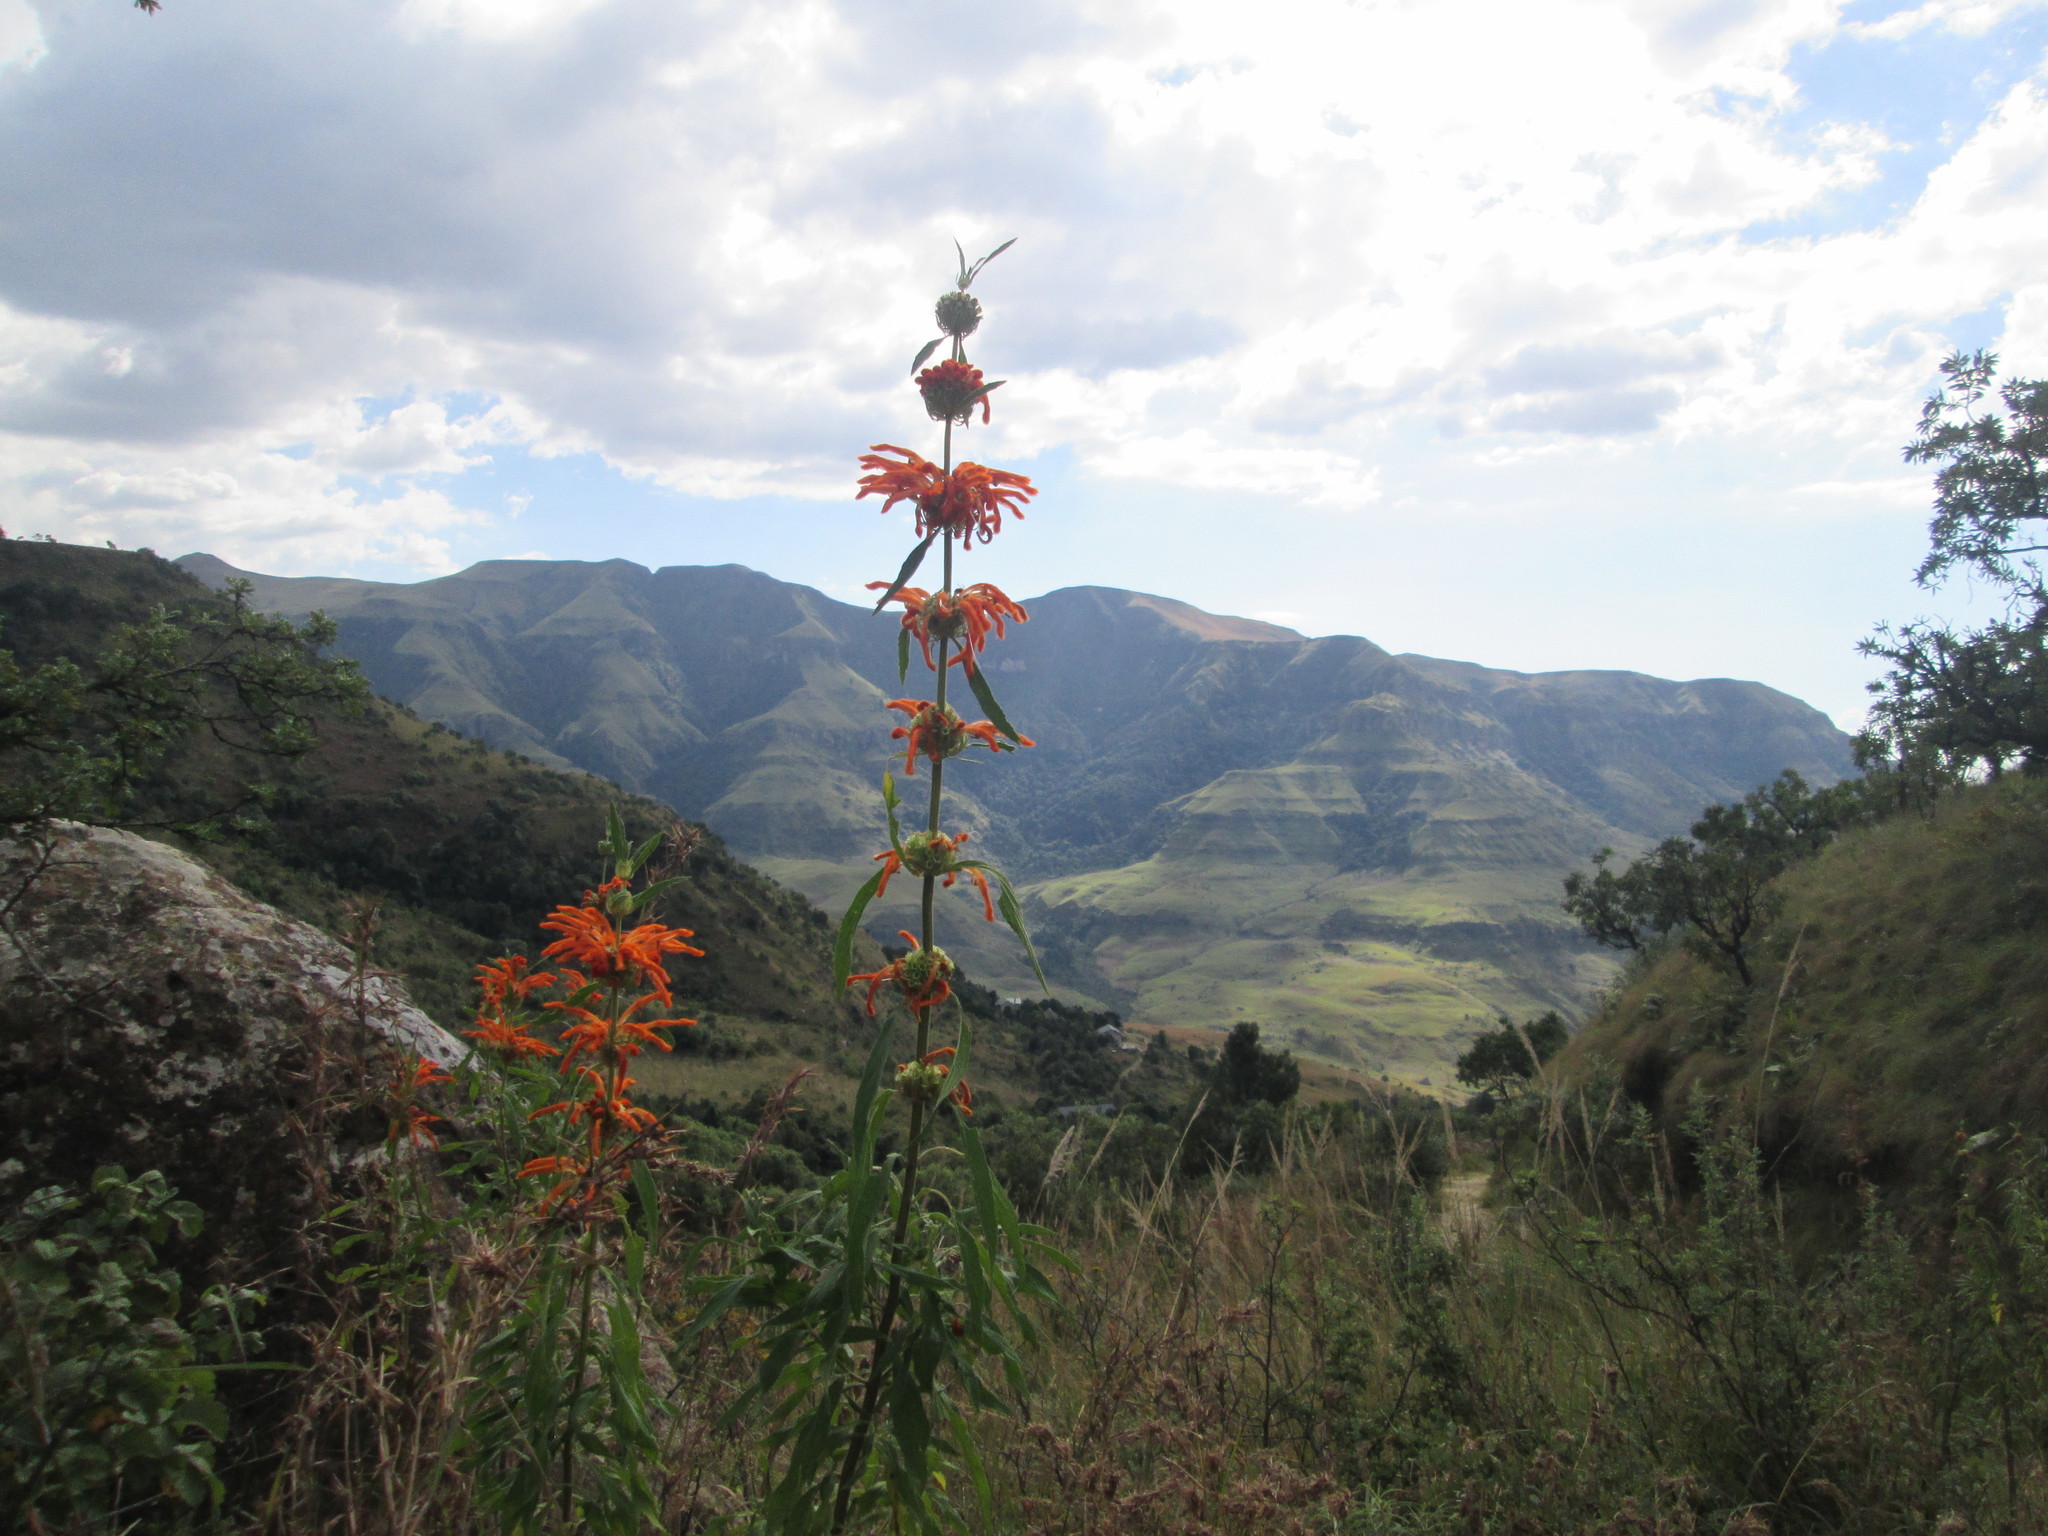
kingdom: Plantae
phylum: Tracheophyta
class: Magnoliopsida
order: Lamiales
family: Lamiaceae
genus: Leonotis
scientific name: Leonotis leonurus
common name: Lion's ear
